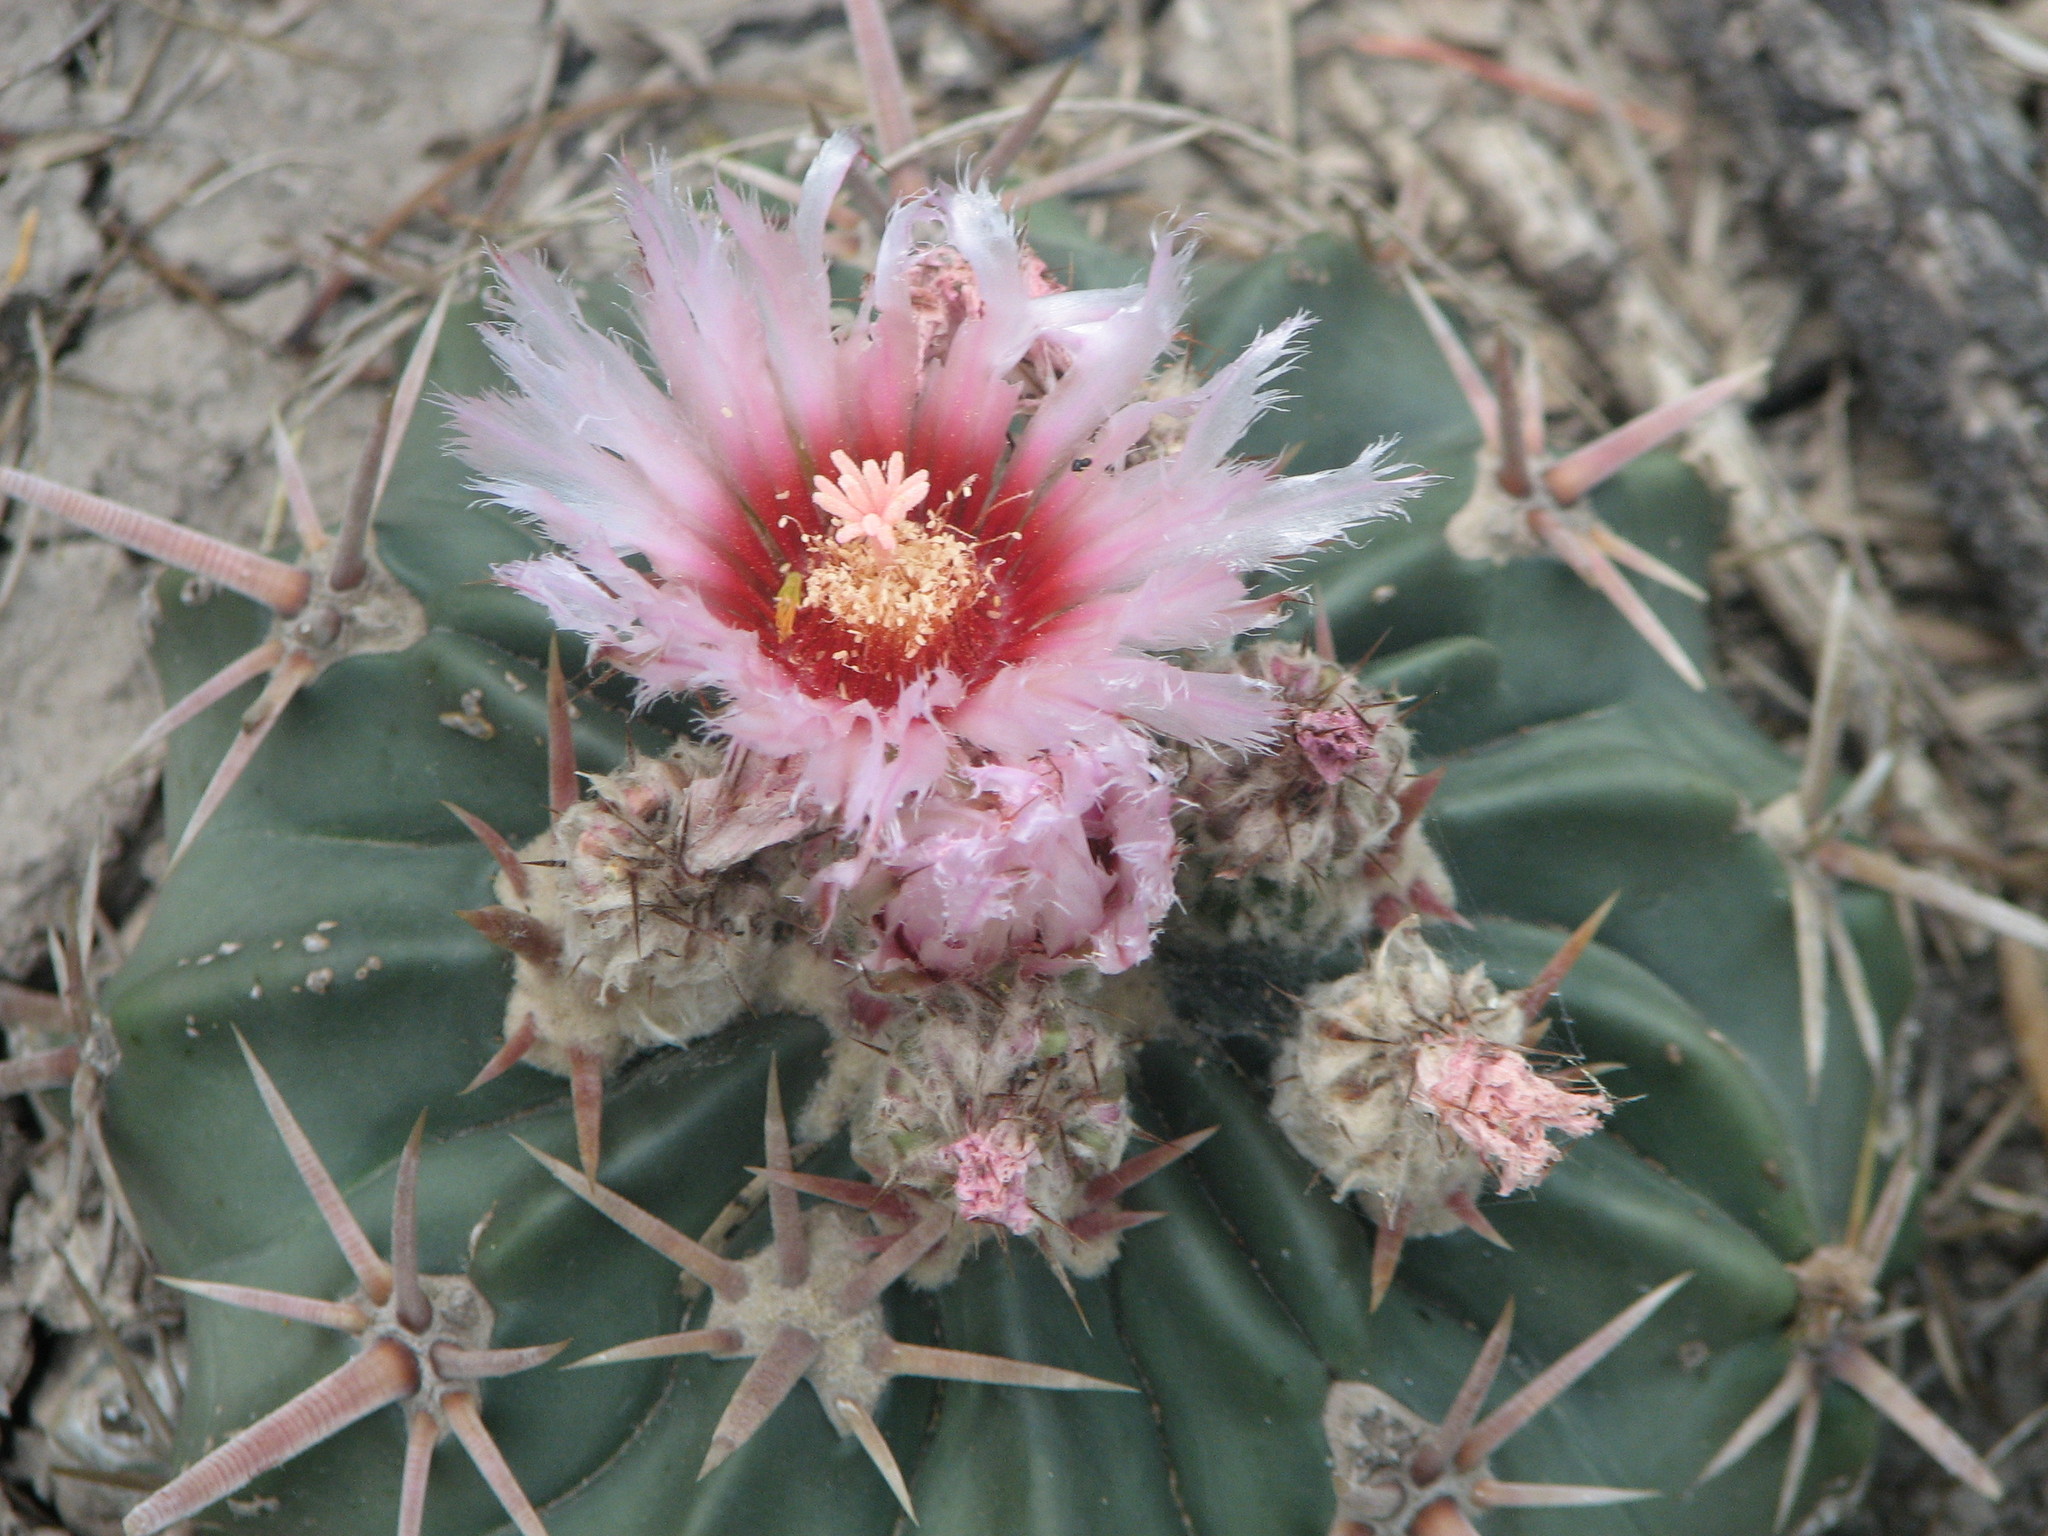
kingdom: Plantae
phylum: Tracheophyta
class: Magnoliopsida
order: Caryophyllales
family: Cactaceae
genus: Echinocactus
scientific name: Echinocactus texensis
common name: Devil's pincushion
